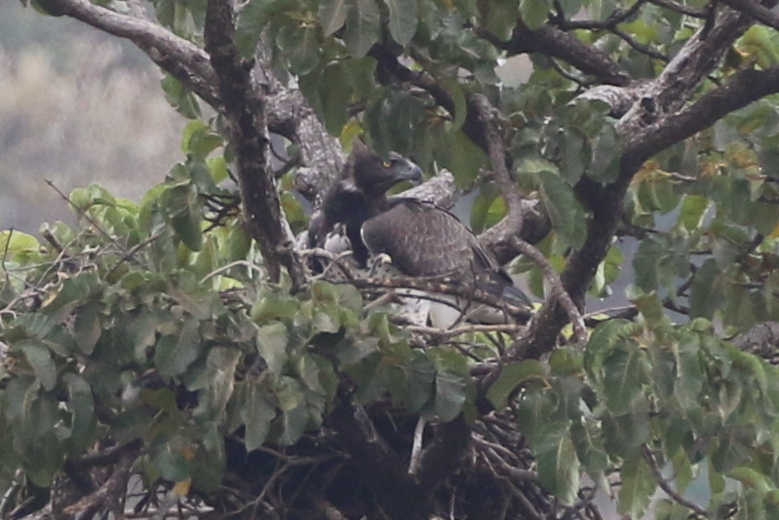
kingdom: Animalia
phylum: Chordata
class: Aves
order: Accipitriformes
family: Accipitridae
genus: Polemaetus
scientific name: Polemaetus bellicosus
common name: Martial eagle
